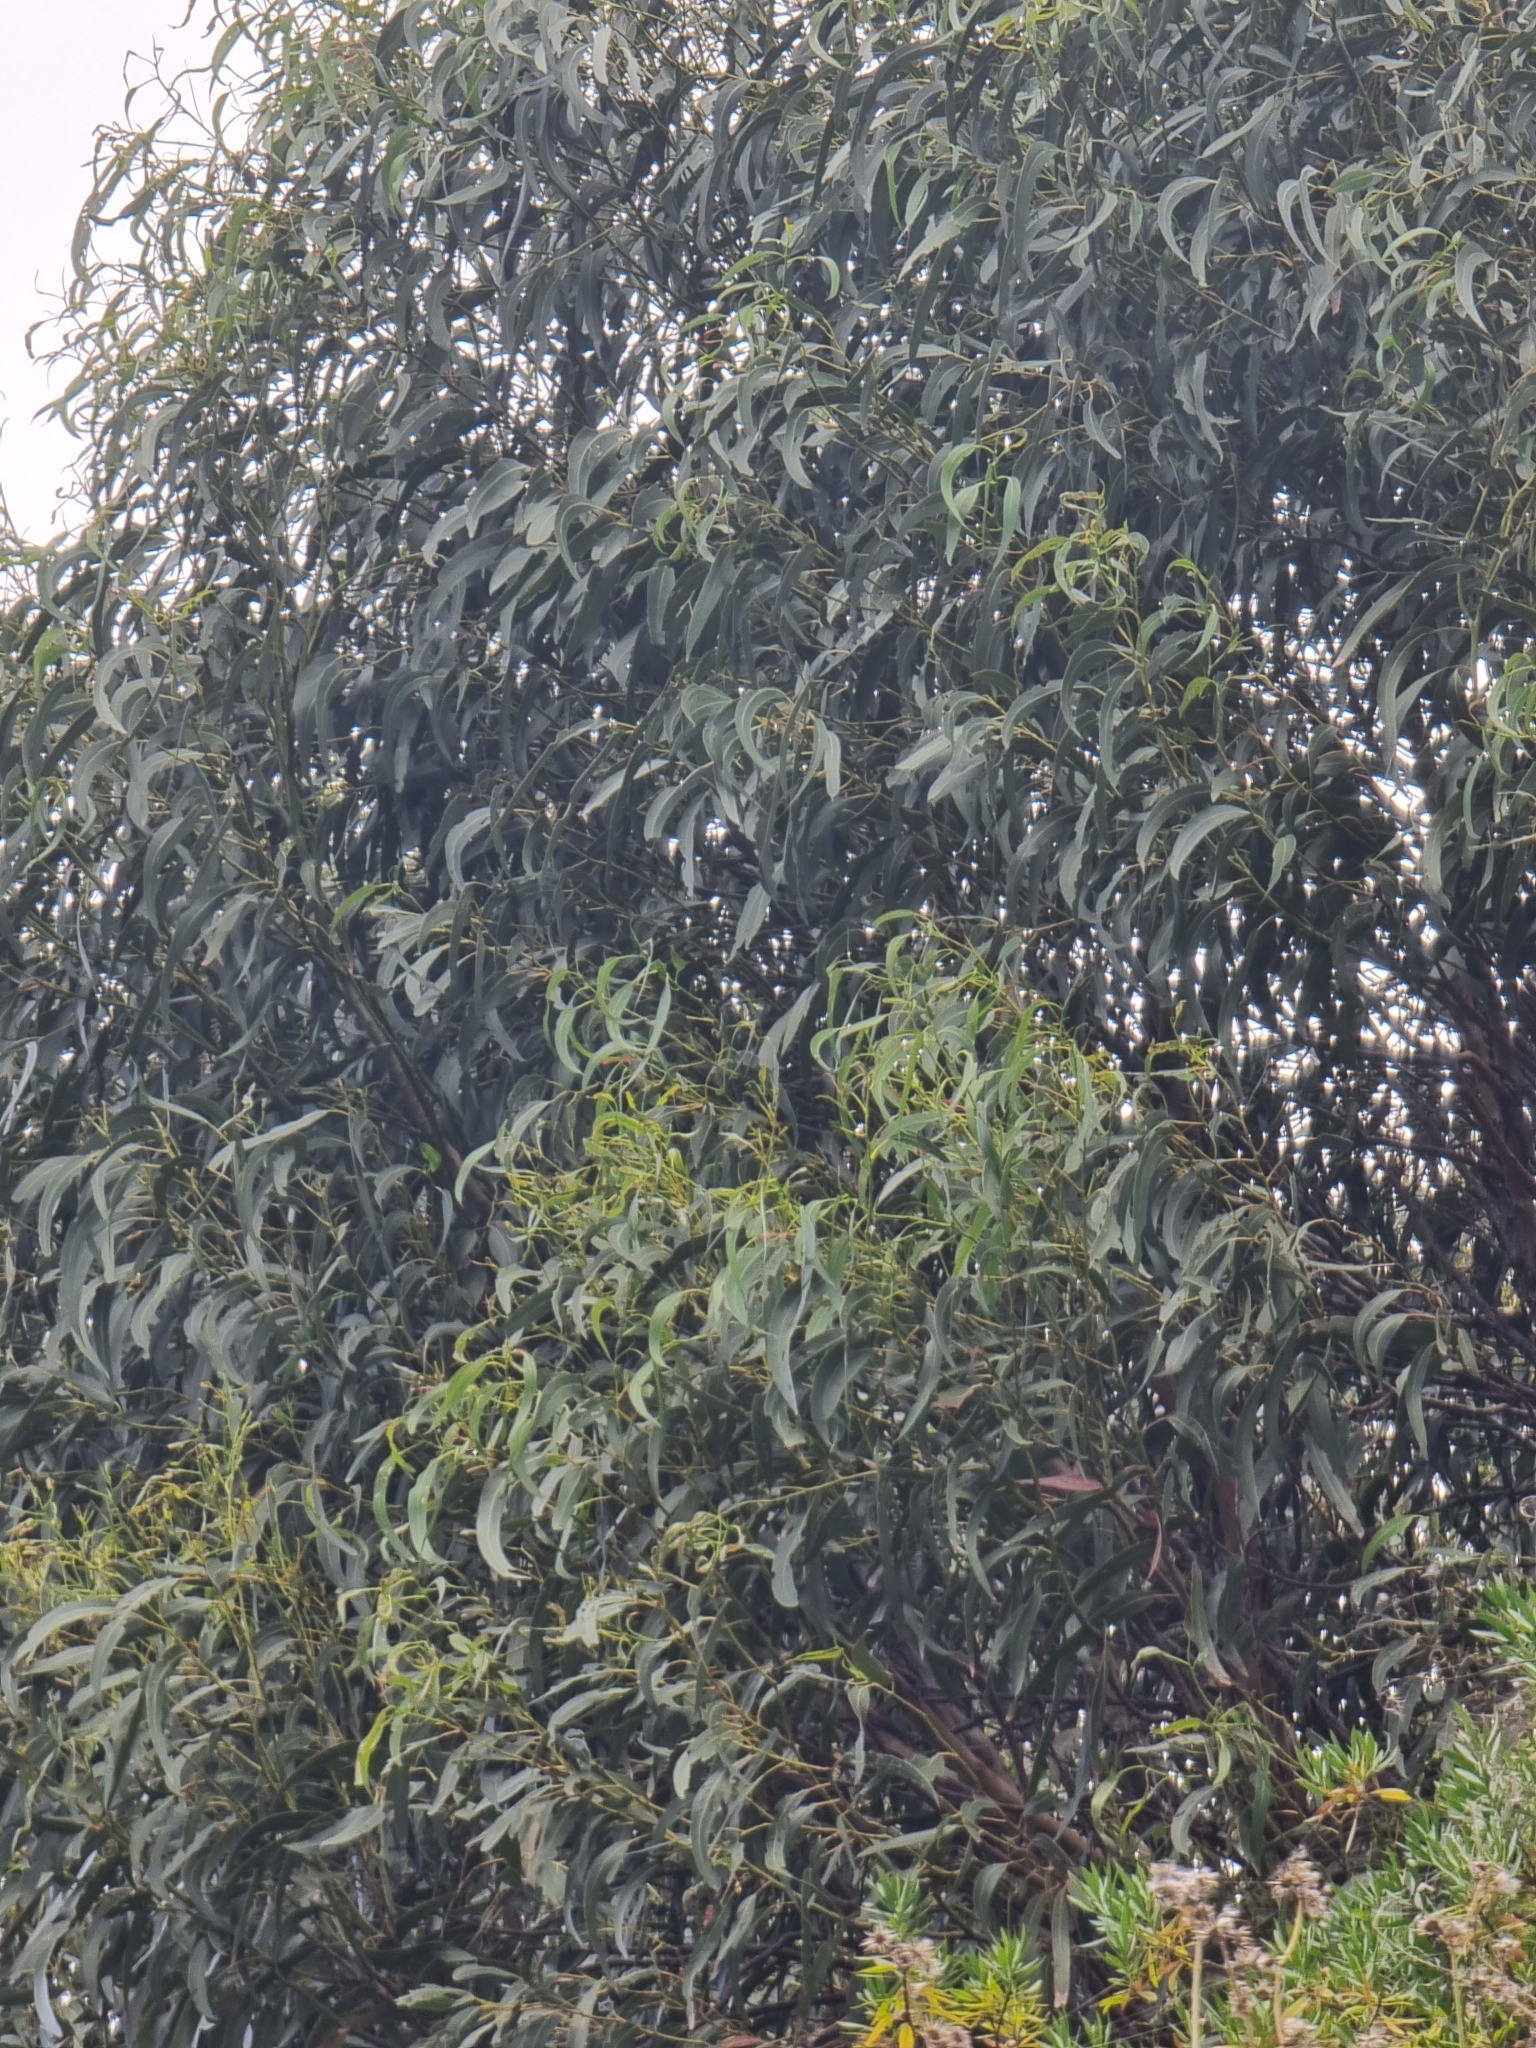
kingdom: Plantae
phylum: Tracheophyta
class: Magnoliopsida
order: Myrtales
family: Myrtaceae
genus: Eucalyptus
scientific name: Eucalyptus globulus
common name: Southern blue-gum
